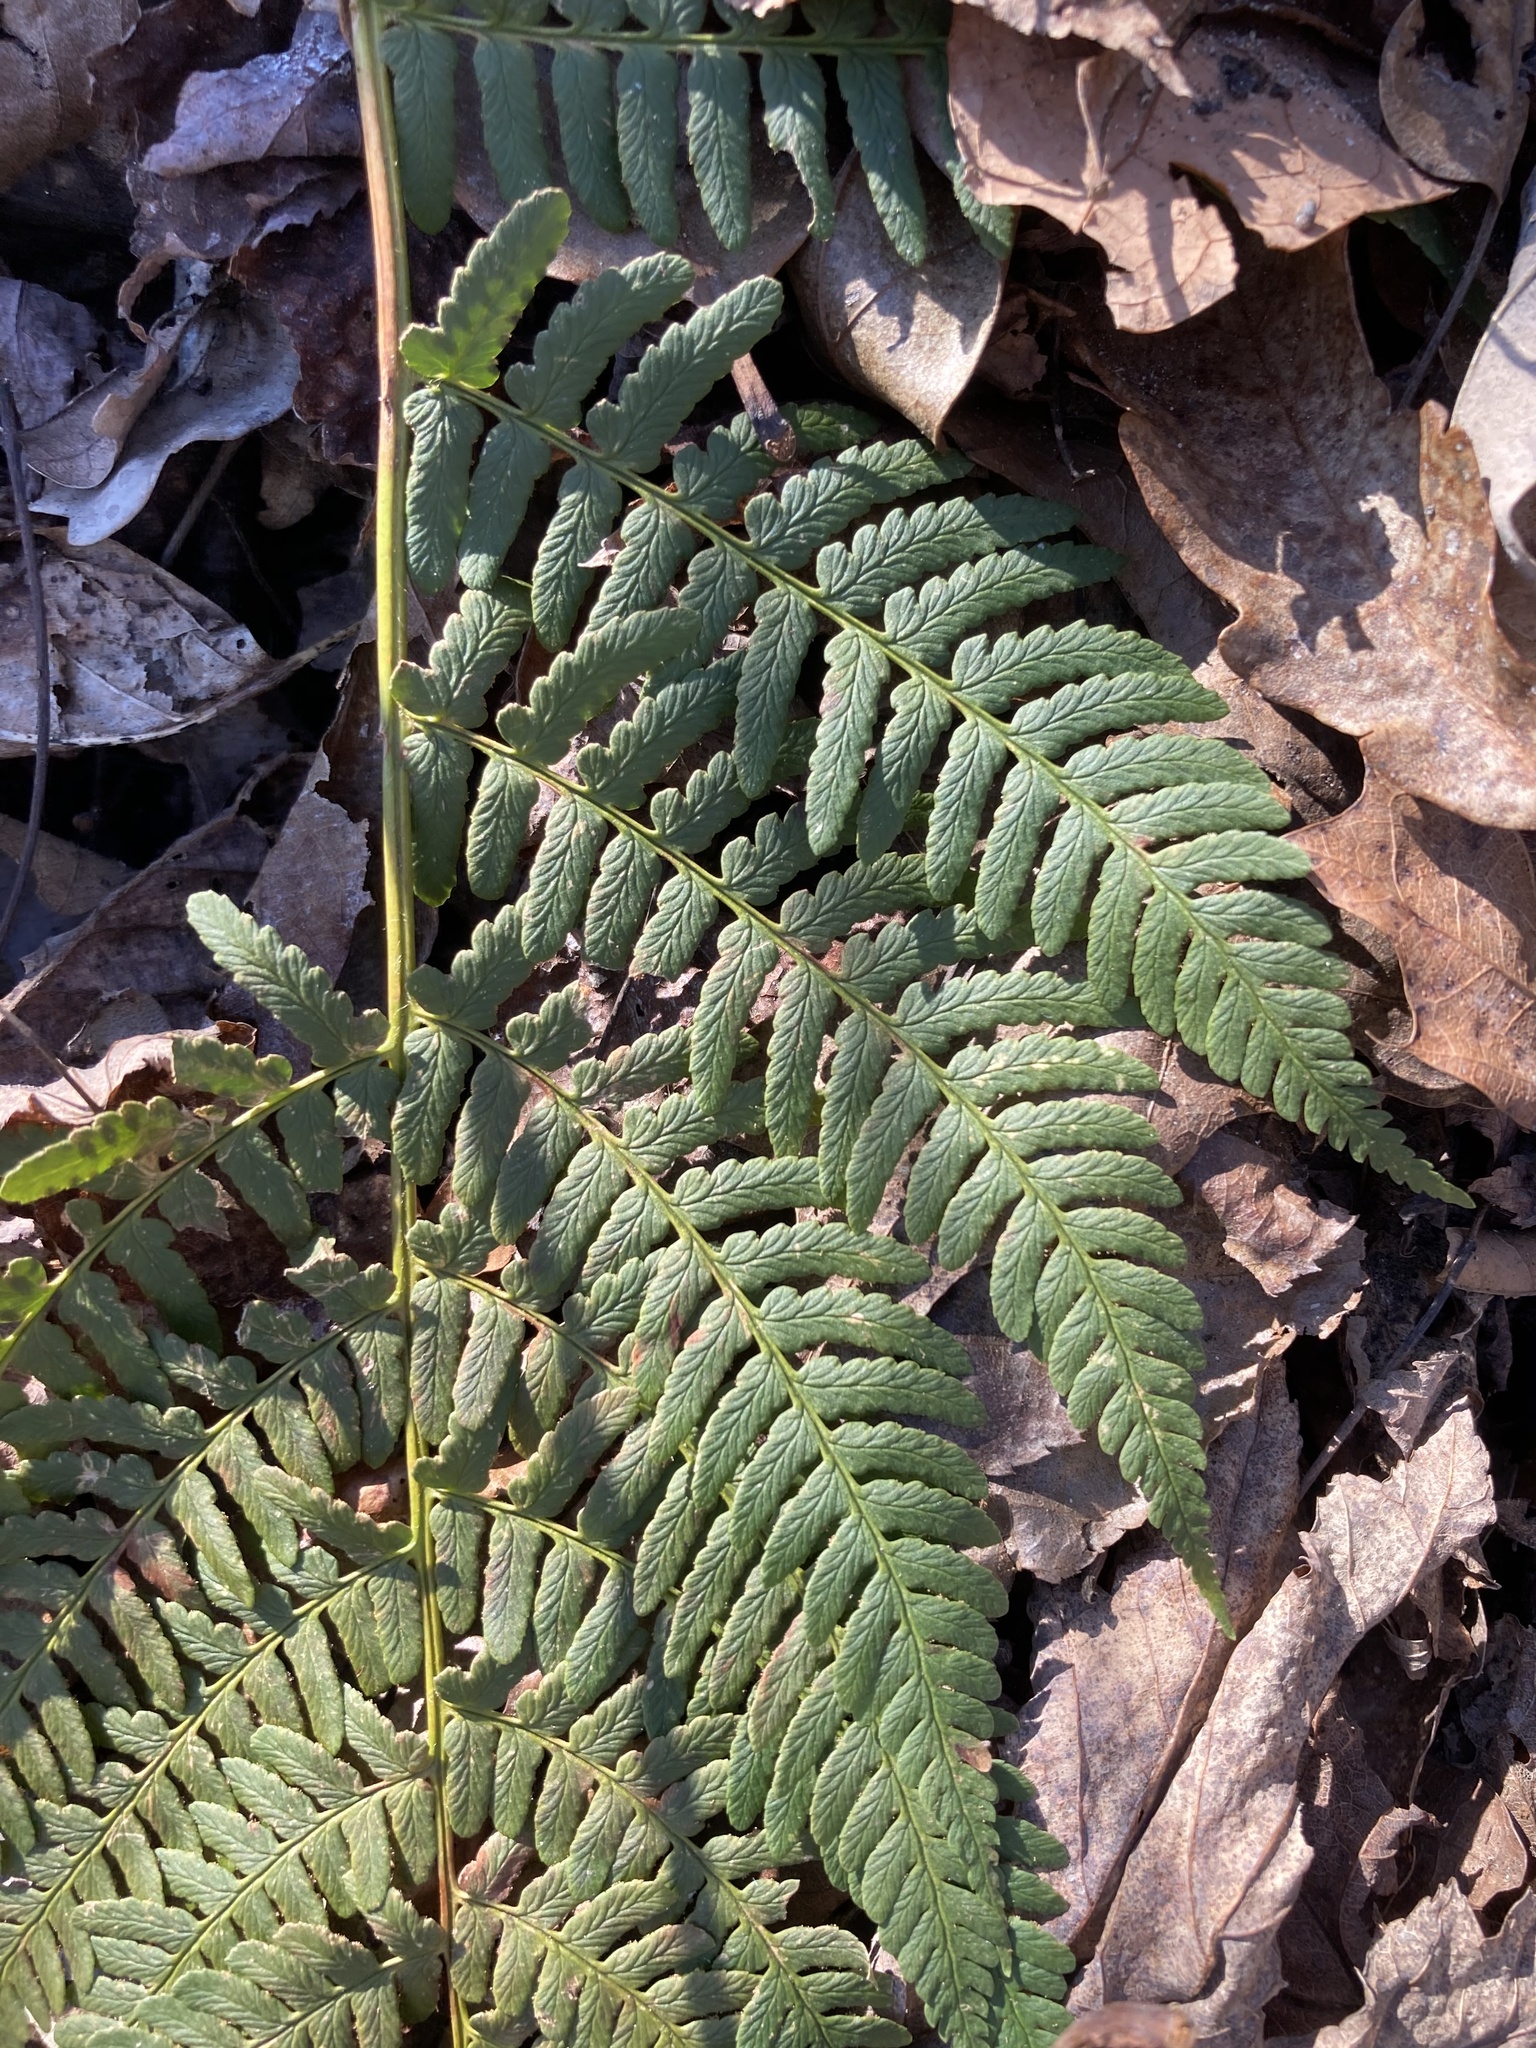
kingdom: Plantae
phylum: Tracheophyta
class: Polypodiopsida
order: Polypodiales
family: Dryopteridaceae
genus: Dryopteris
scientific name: Dryopteris marginalis
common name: Marginal wood fern
